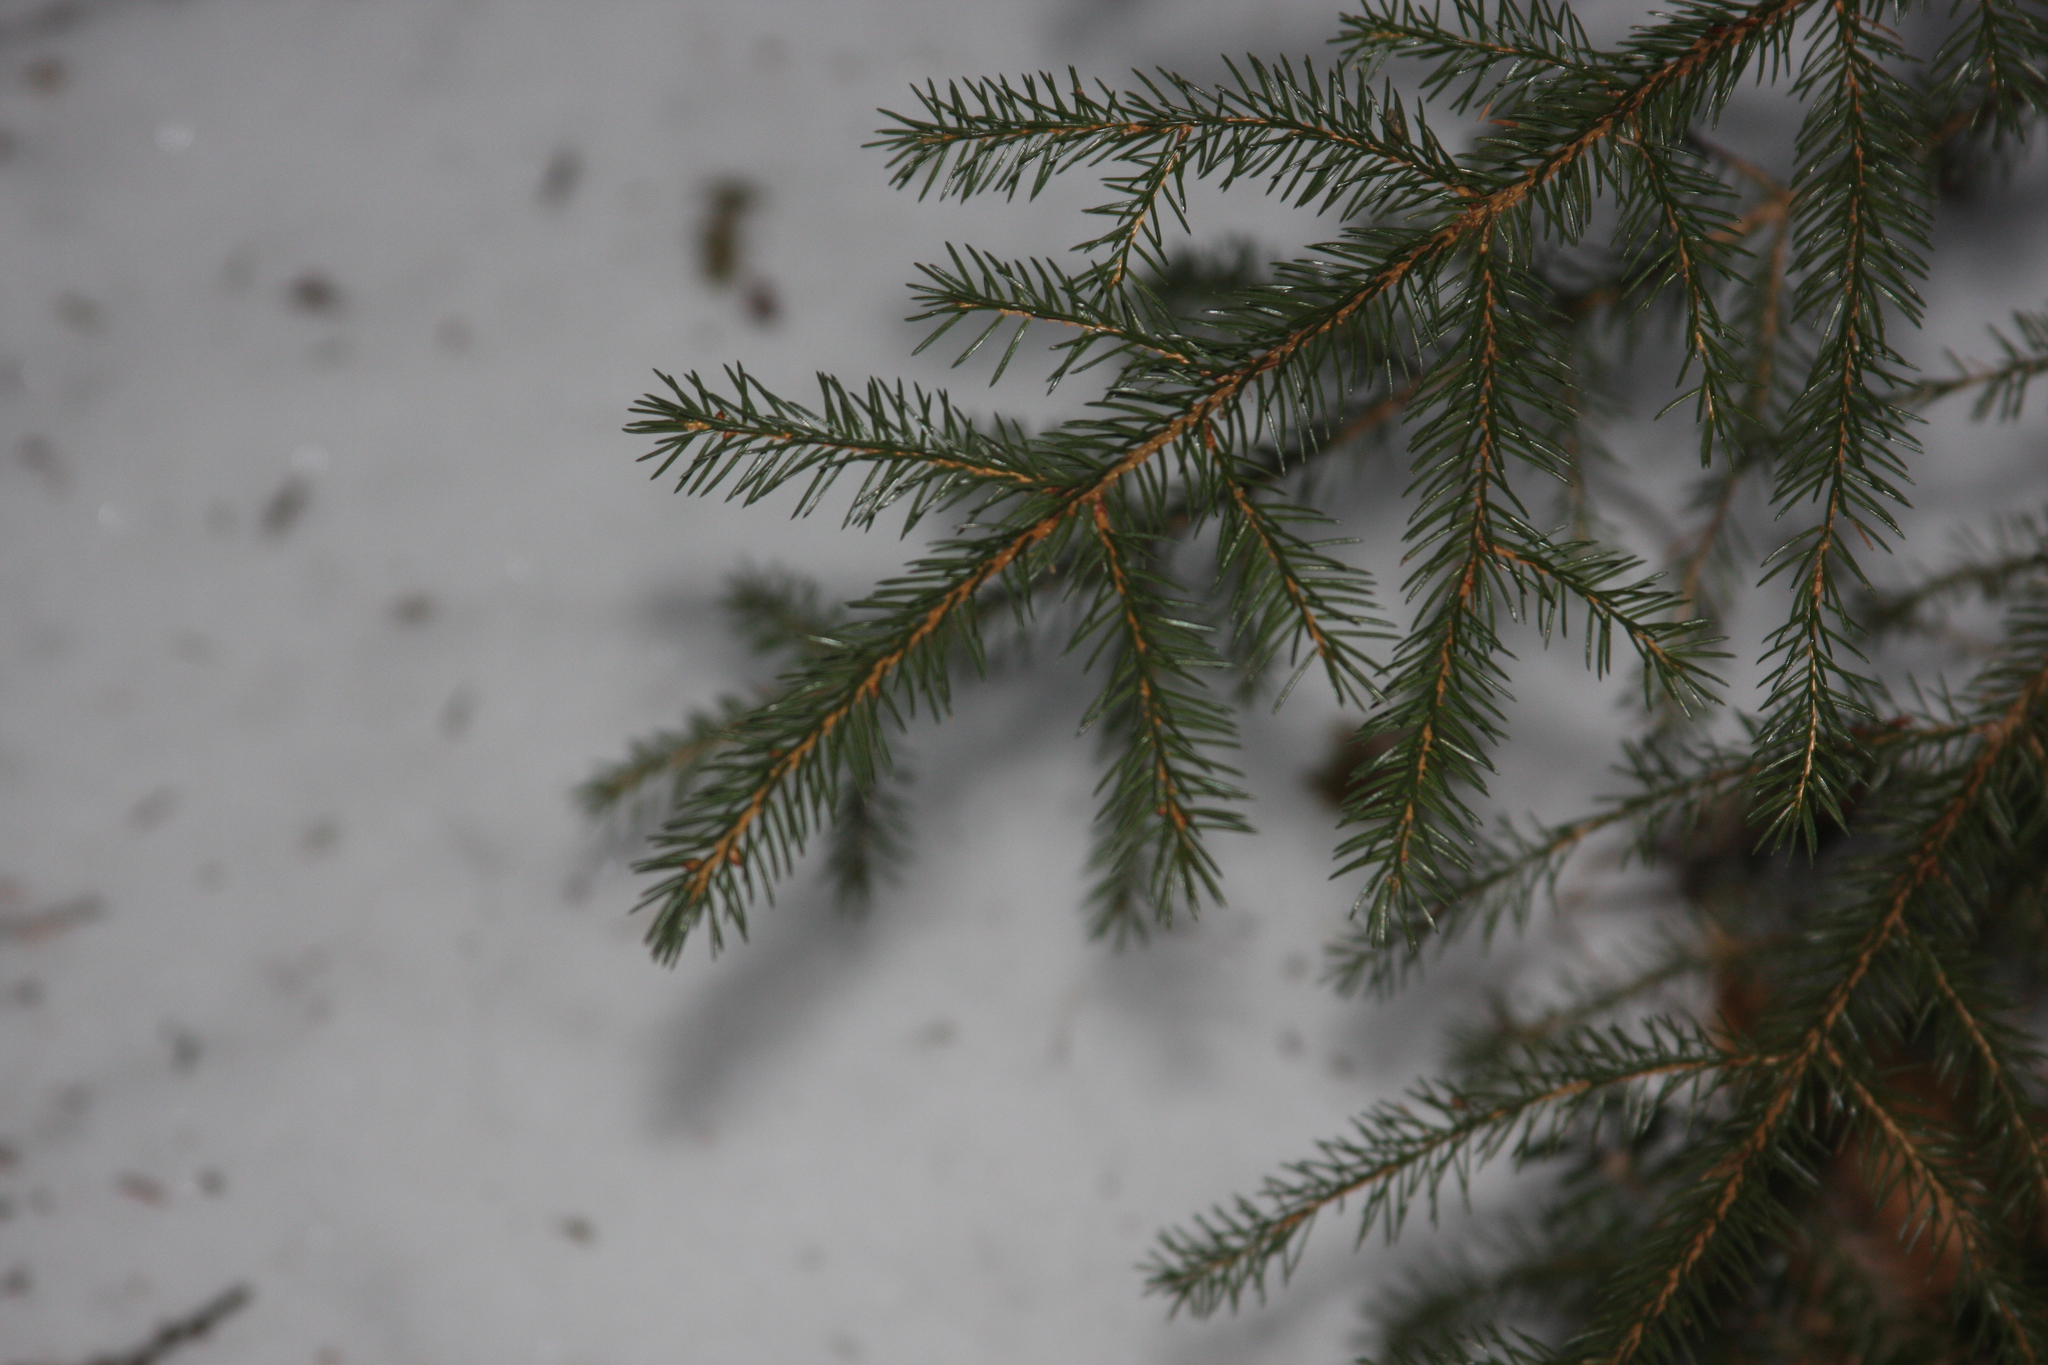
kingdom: Plantae
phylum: Tracheophyta
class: Pinopsida
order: Pinales
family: Pinaceae
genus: Picea
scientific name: Picea rubens
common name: Red spruce
